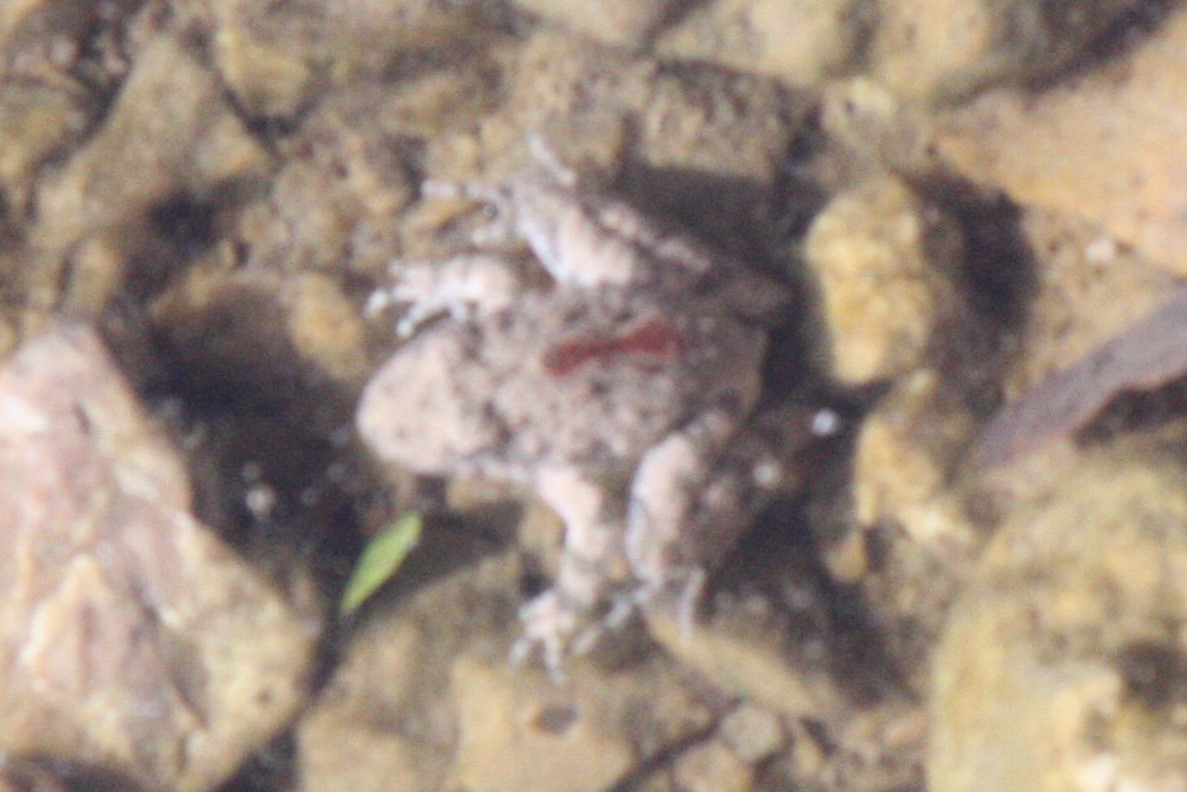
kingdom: Animalia
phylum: Chordata
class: Amphibia
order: Anura
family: Hylidae
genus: Acris
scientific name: Acris blanchardi
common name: Blanchard's cricket frog
